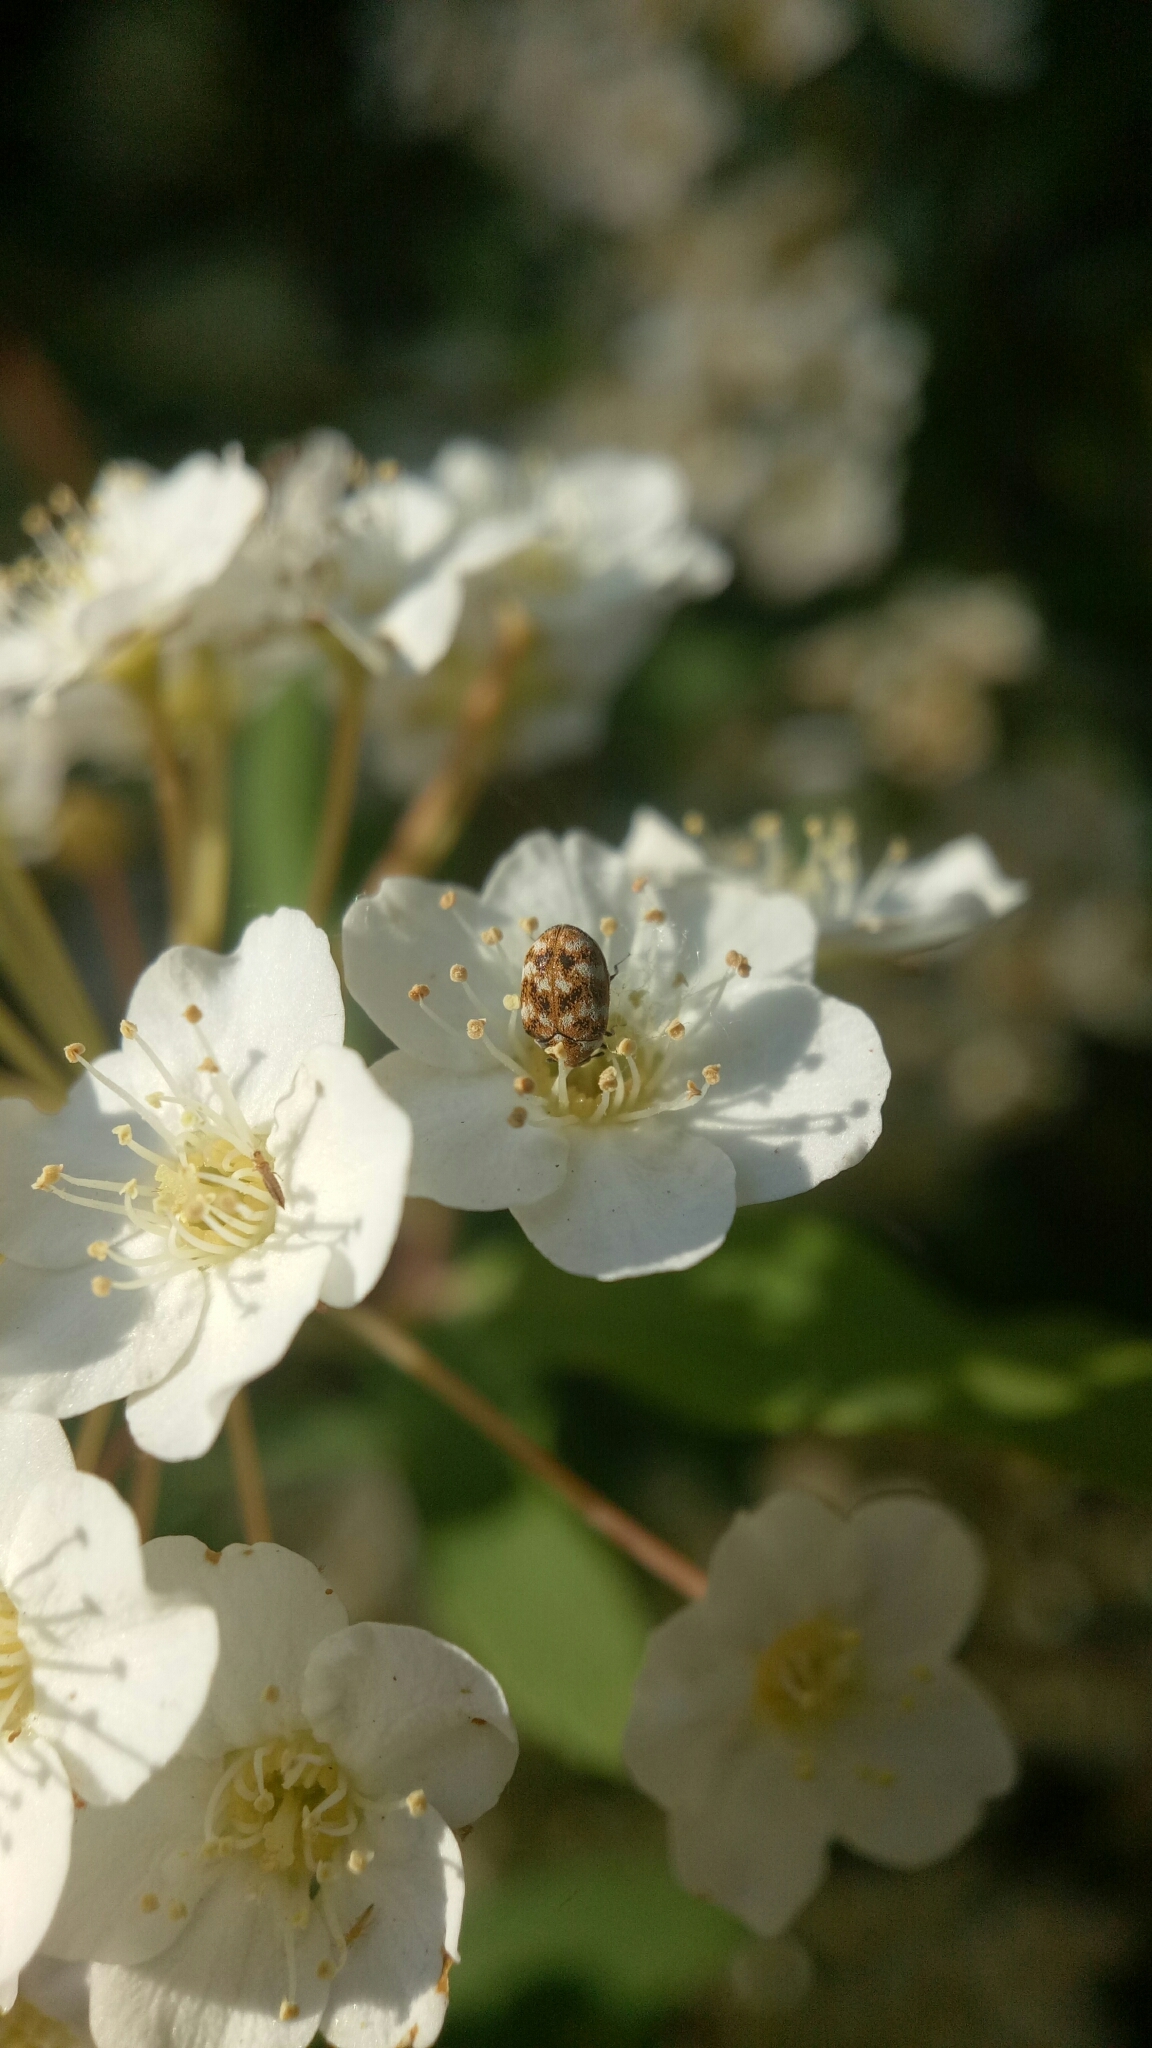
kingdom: Animalia
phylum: Arthropoda
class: Insecta
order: Coleoptera
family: Dermestidae
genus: Anthrenus
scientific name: Anthrenus verbasci
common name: Varied carpet beetle
